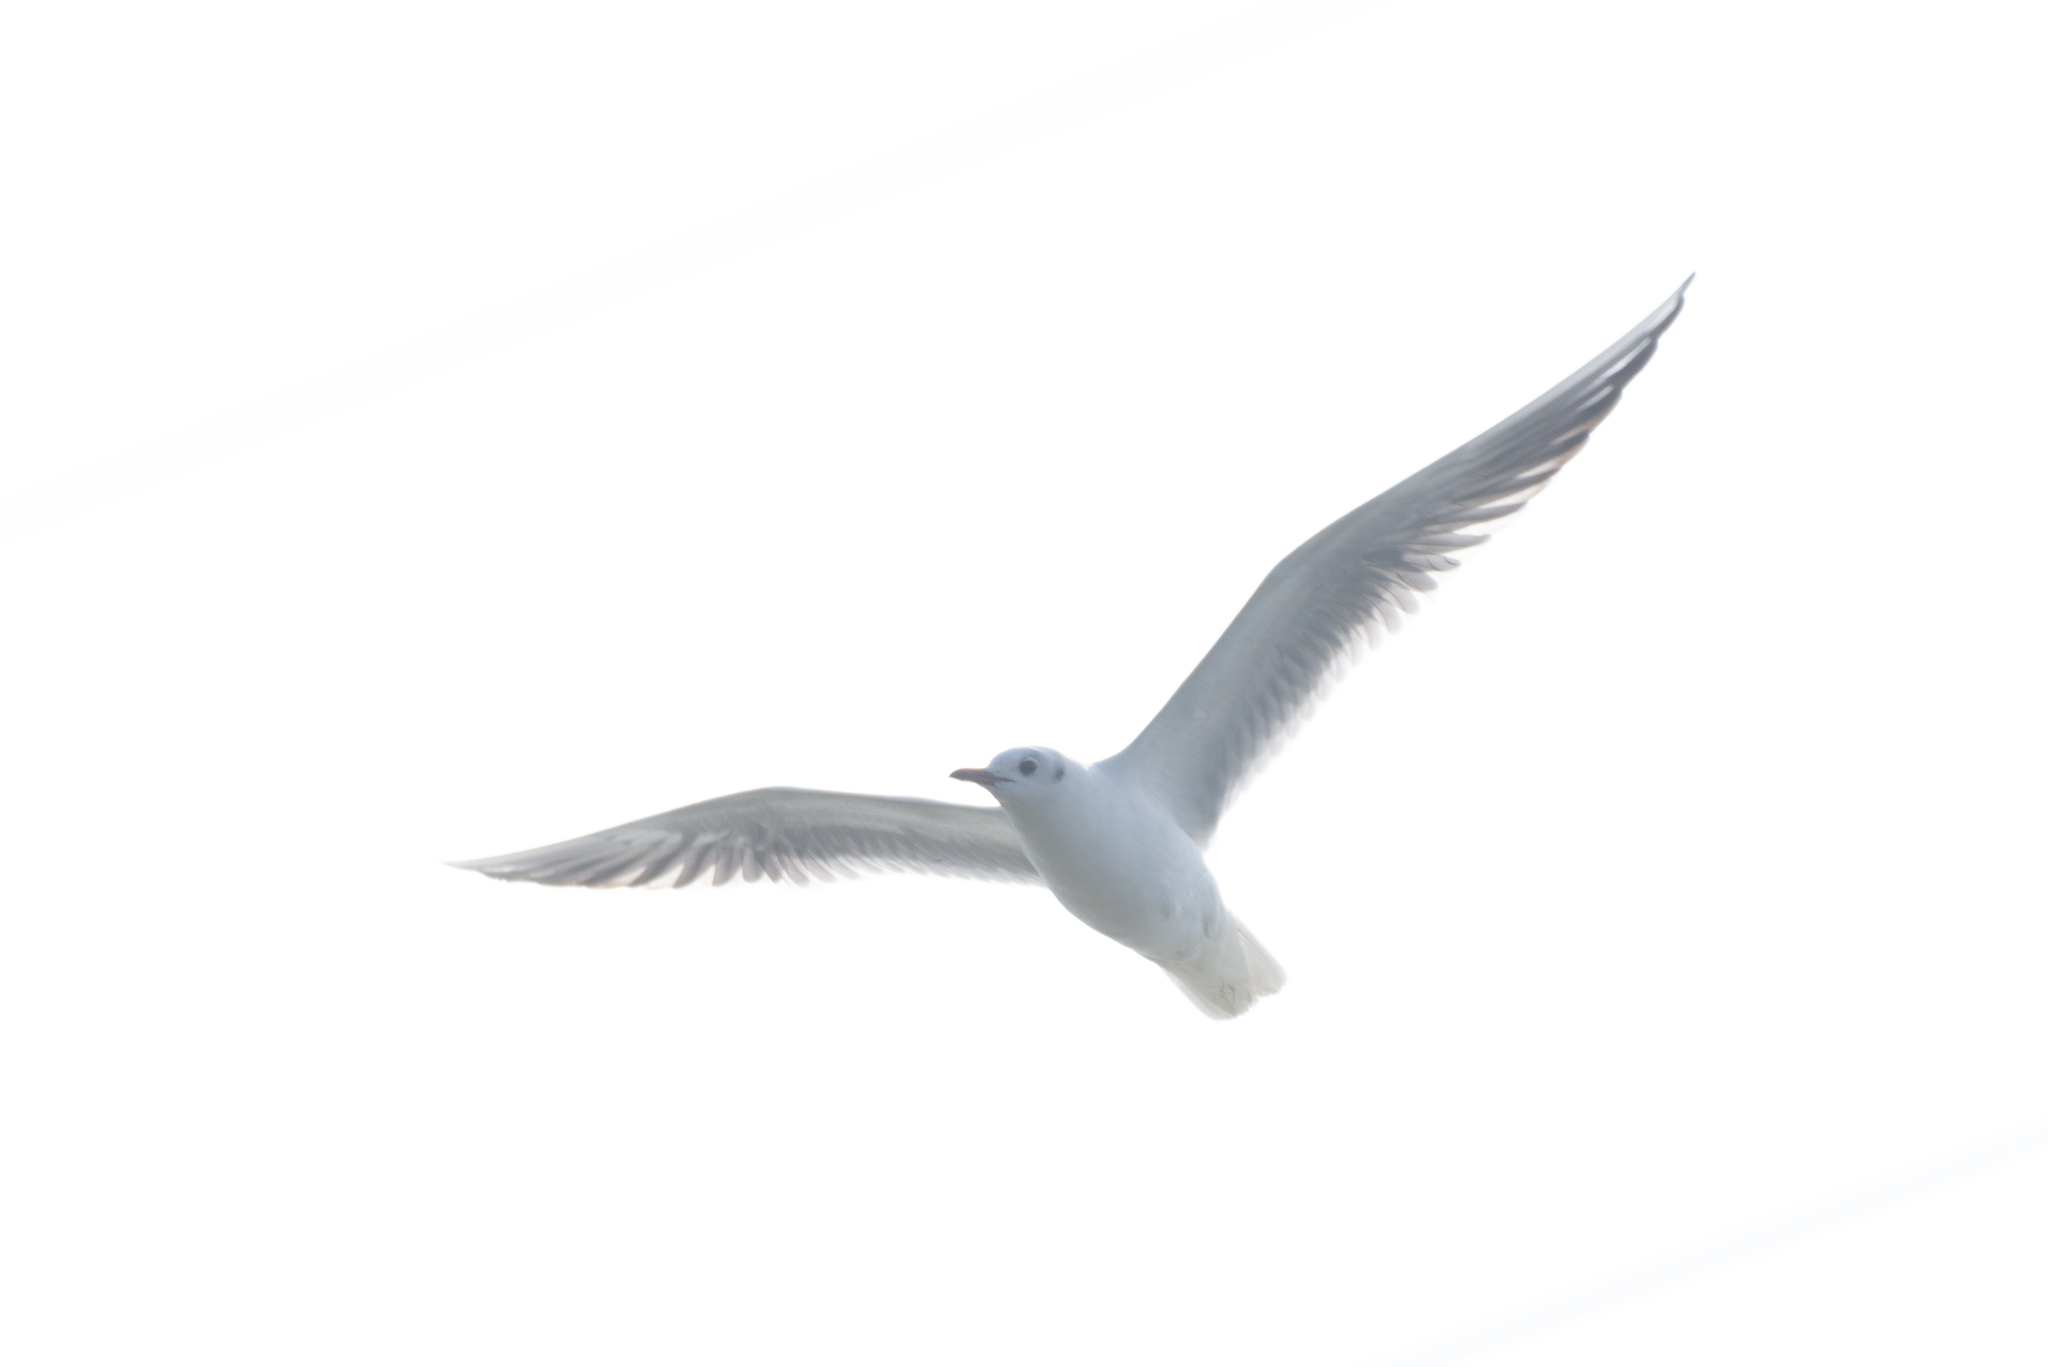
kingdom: Animalia
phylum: Chordata
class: Aves
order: Charadriiformes
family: Laridae
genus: Chroicocephalus
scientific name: Chroicocephalus ridibundus
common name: Black-headed gull
